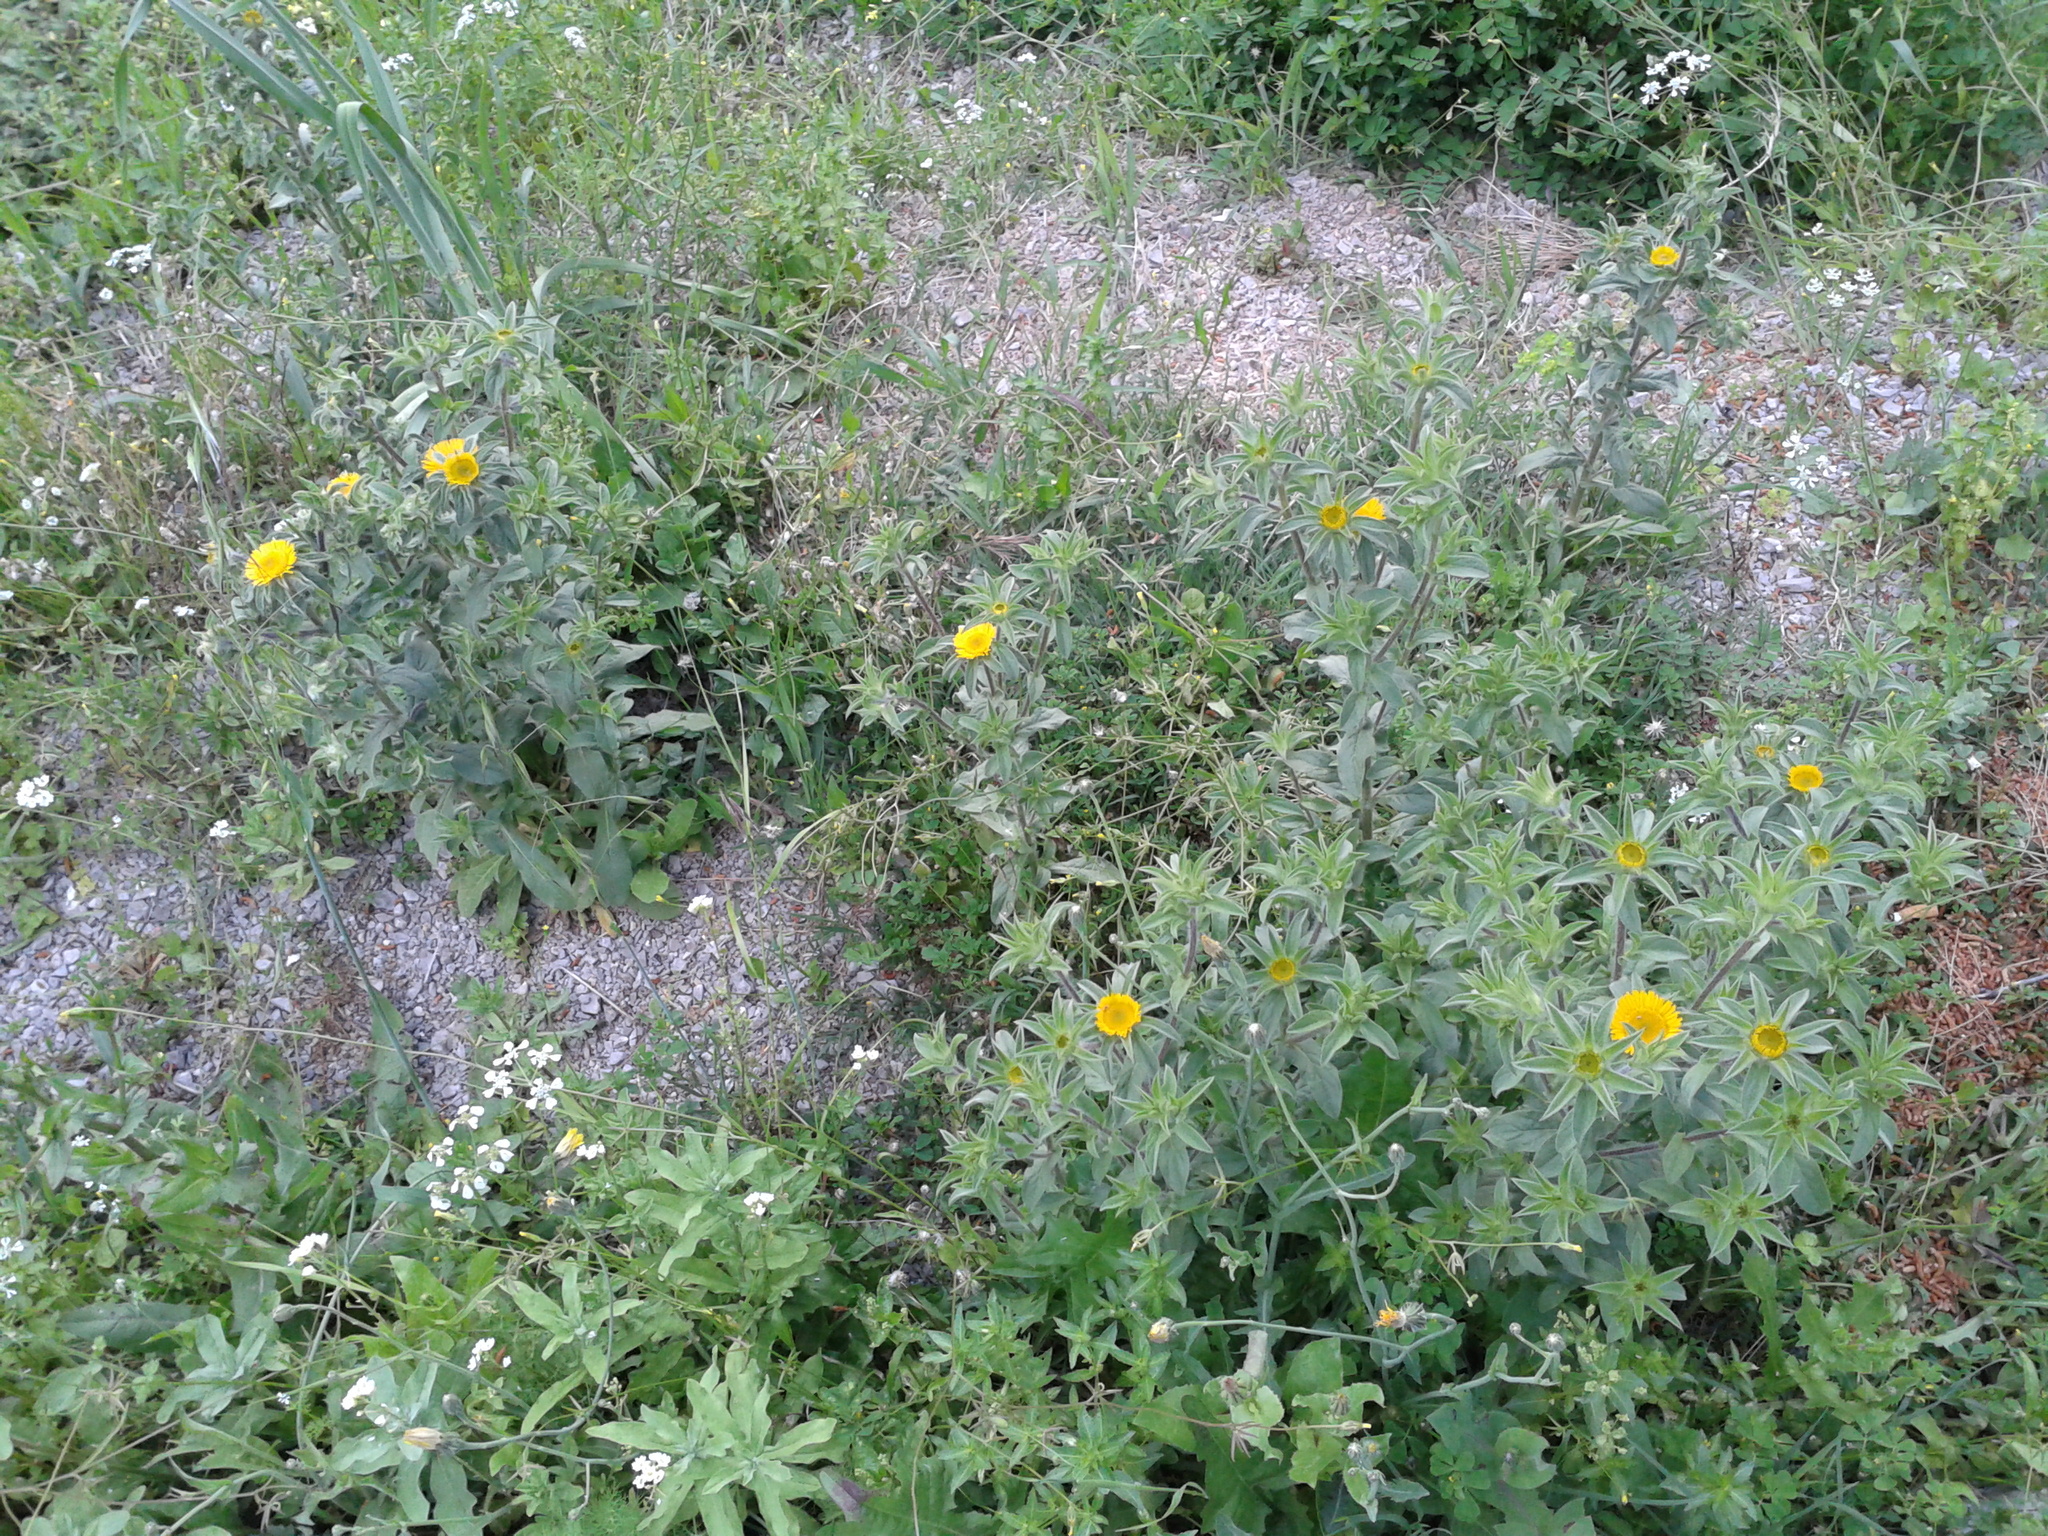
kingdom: Plantae
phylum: Tracheophyta
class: Magnoliopsida
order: Asterales
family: Asteraceae
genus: Pallenis
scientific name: Pallenis spinosa
